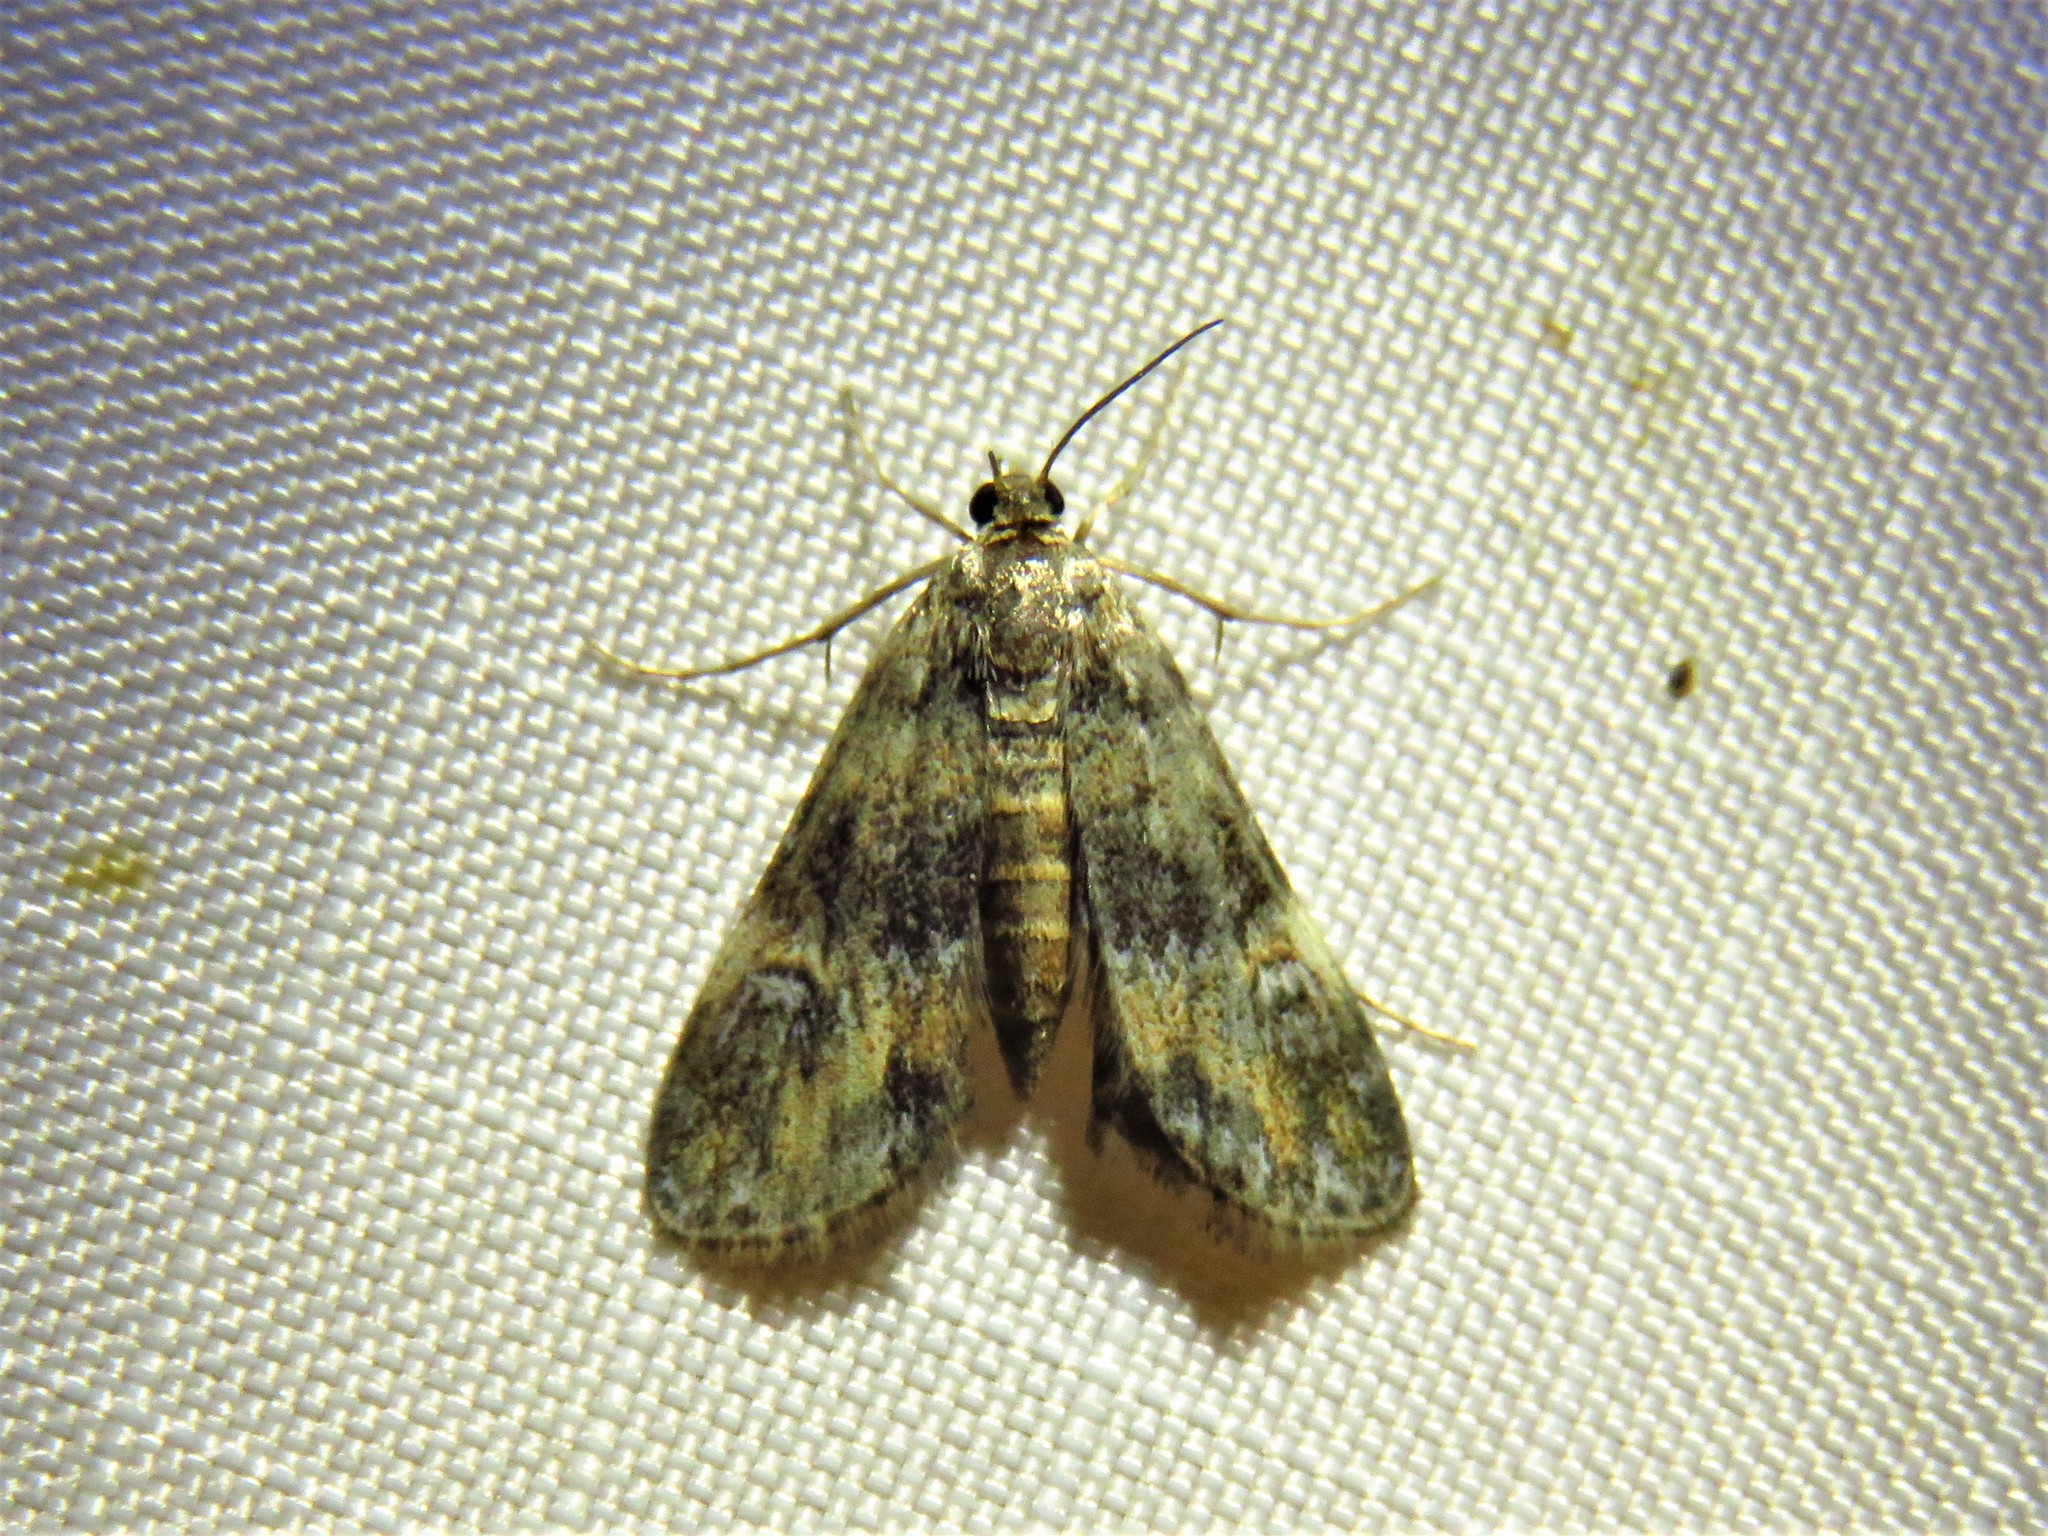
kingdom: Animalia
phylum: Arthropoda
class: Insecta
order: Lepidoptera
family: Crambidae
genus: Elophila
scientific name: Elophila obliteralis
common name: Waterlily leafcutter moth
